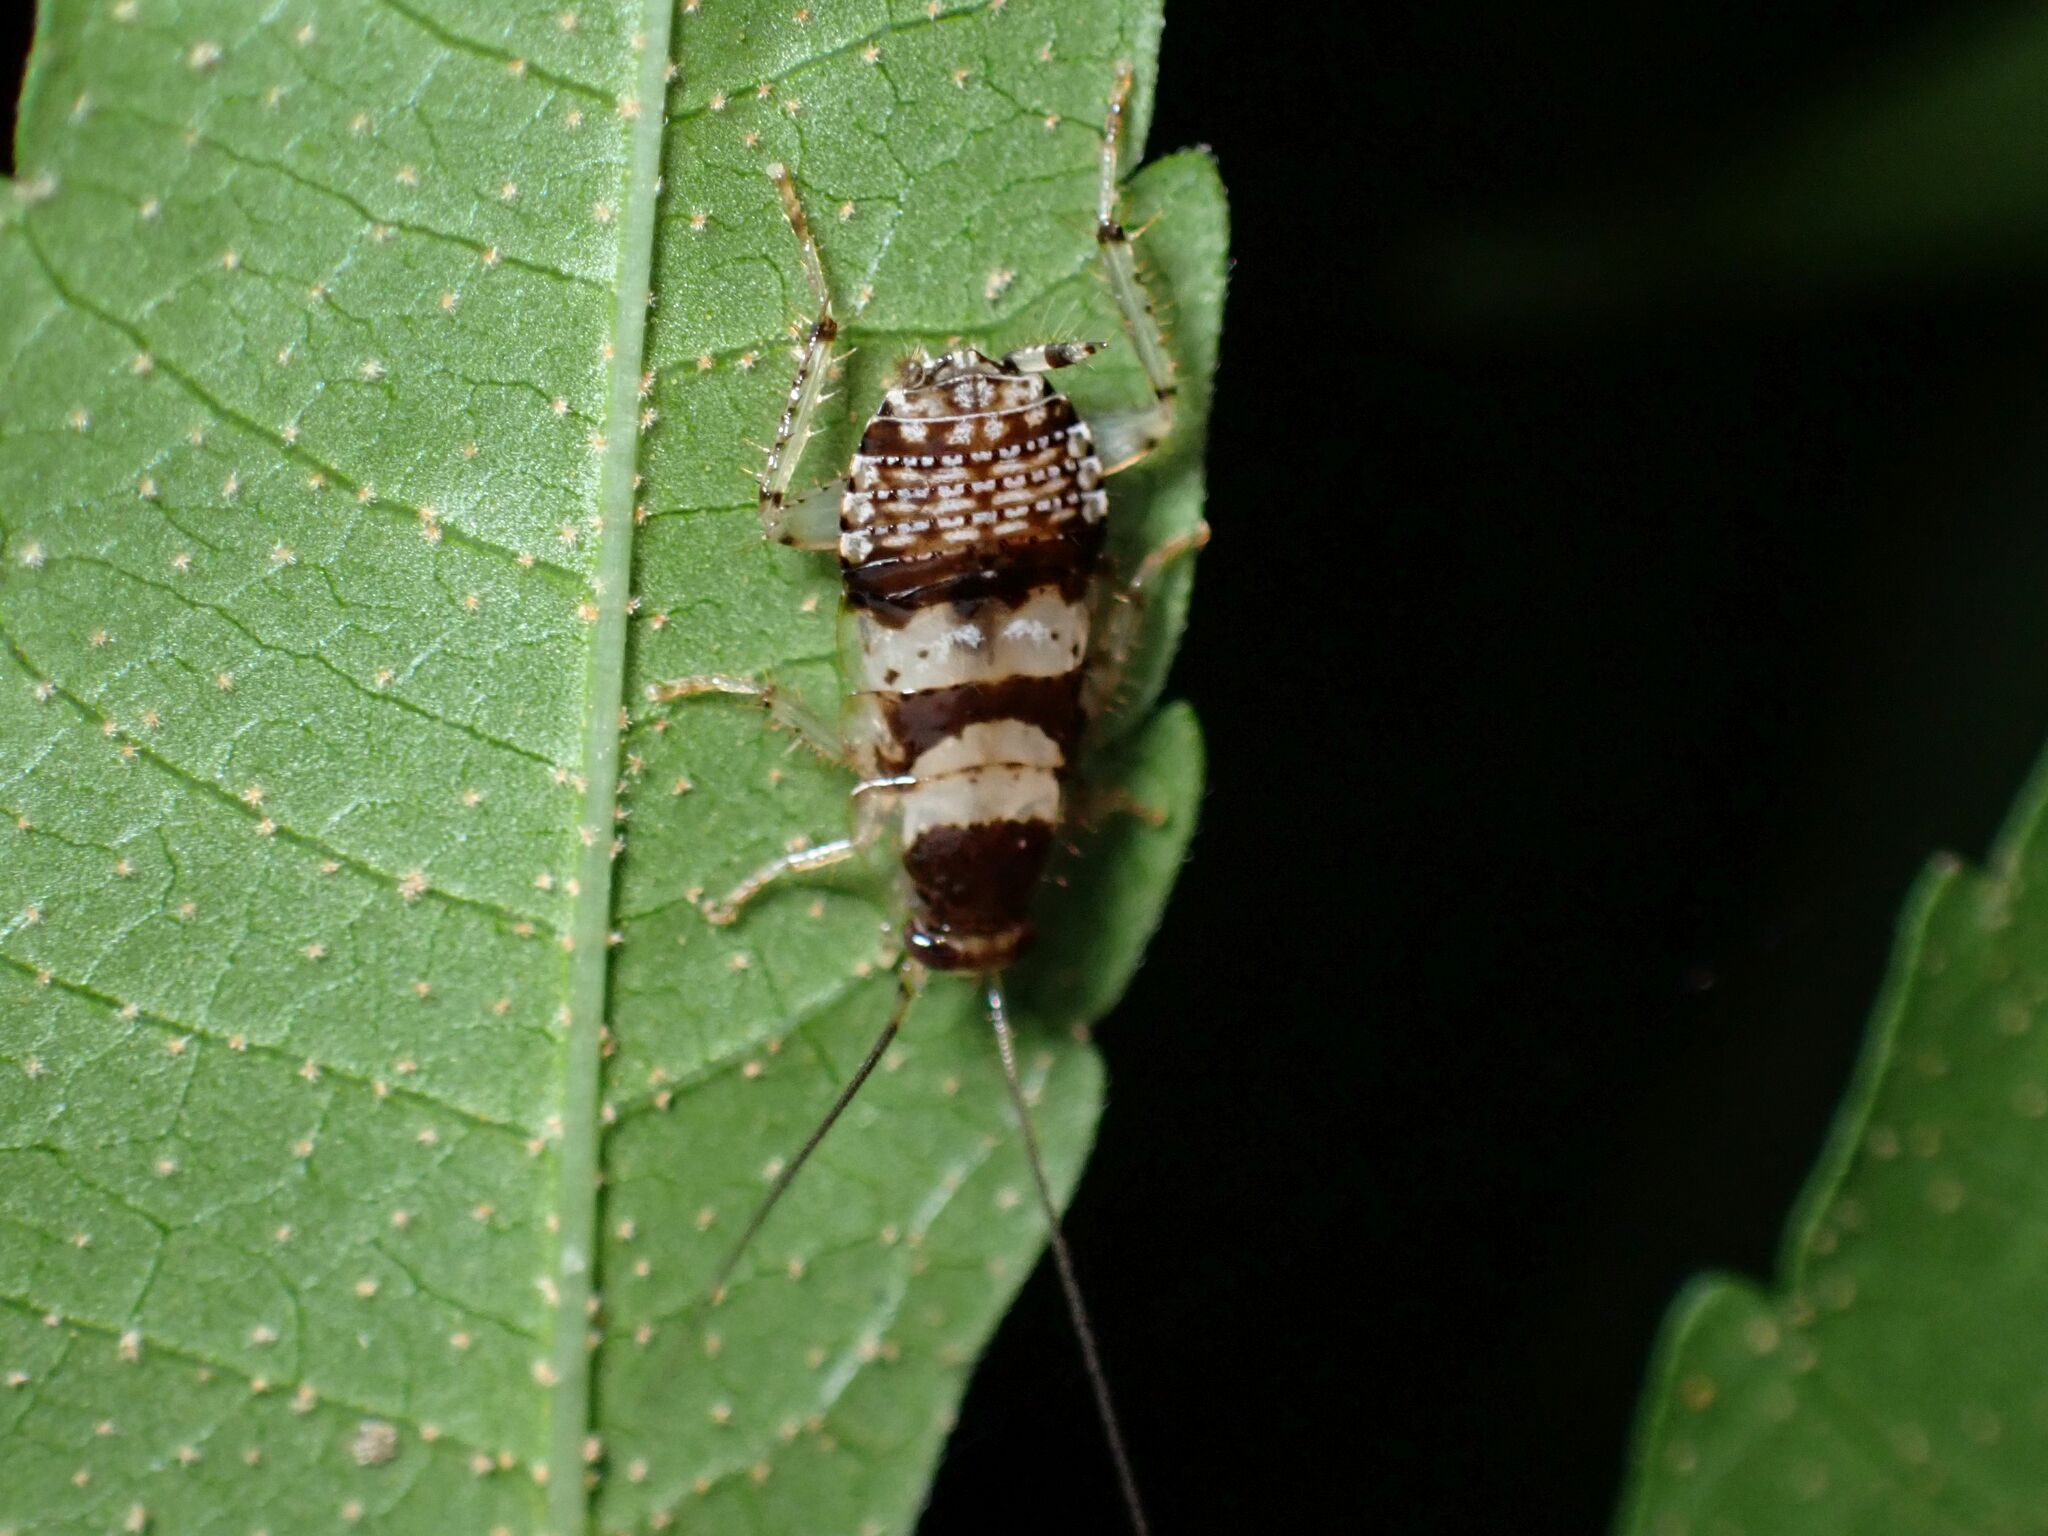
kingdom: Animalia
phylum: Arthropoda
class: Insecta
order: Blattodea
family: Ectobiidae
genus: Balta
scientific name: Balta notulata
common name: Cockroach
